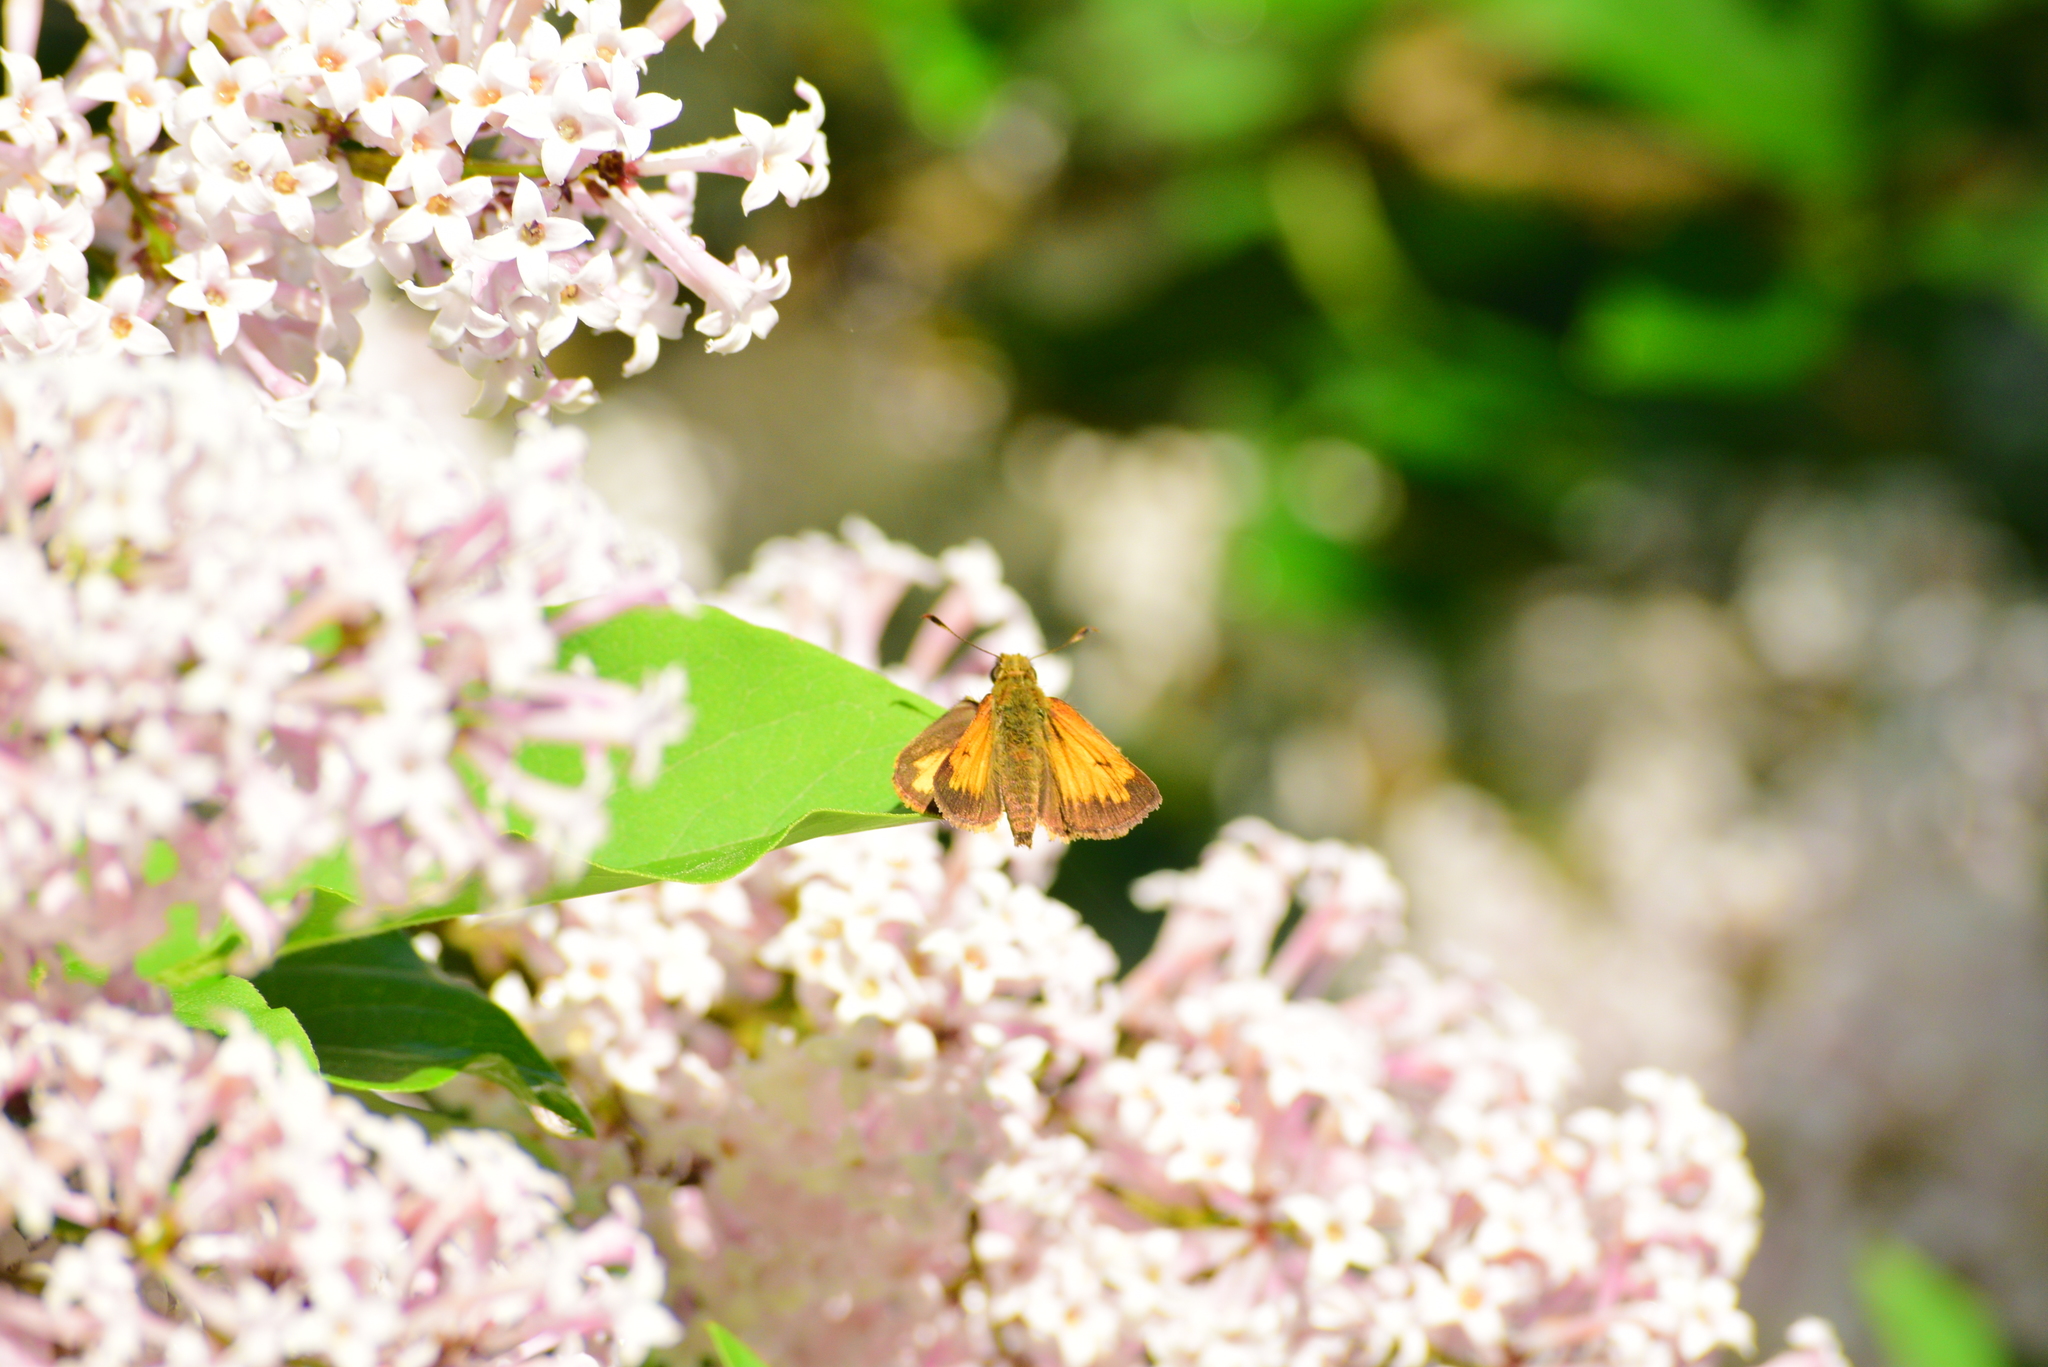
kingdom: Animalia
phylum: Arthropoda
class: Insecta
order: Lepidoptera
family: Hesperiidae
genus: Lon
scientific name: Lon hobomok
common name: Hobomok skipper
